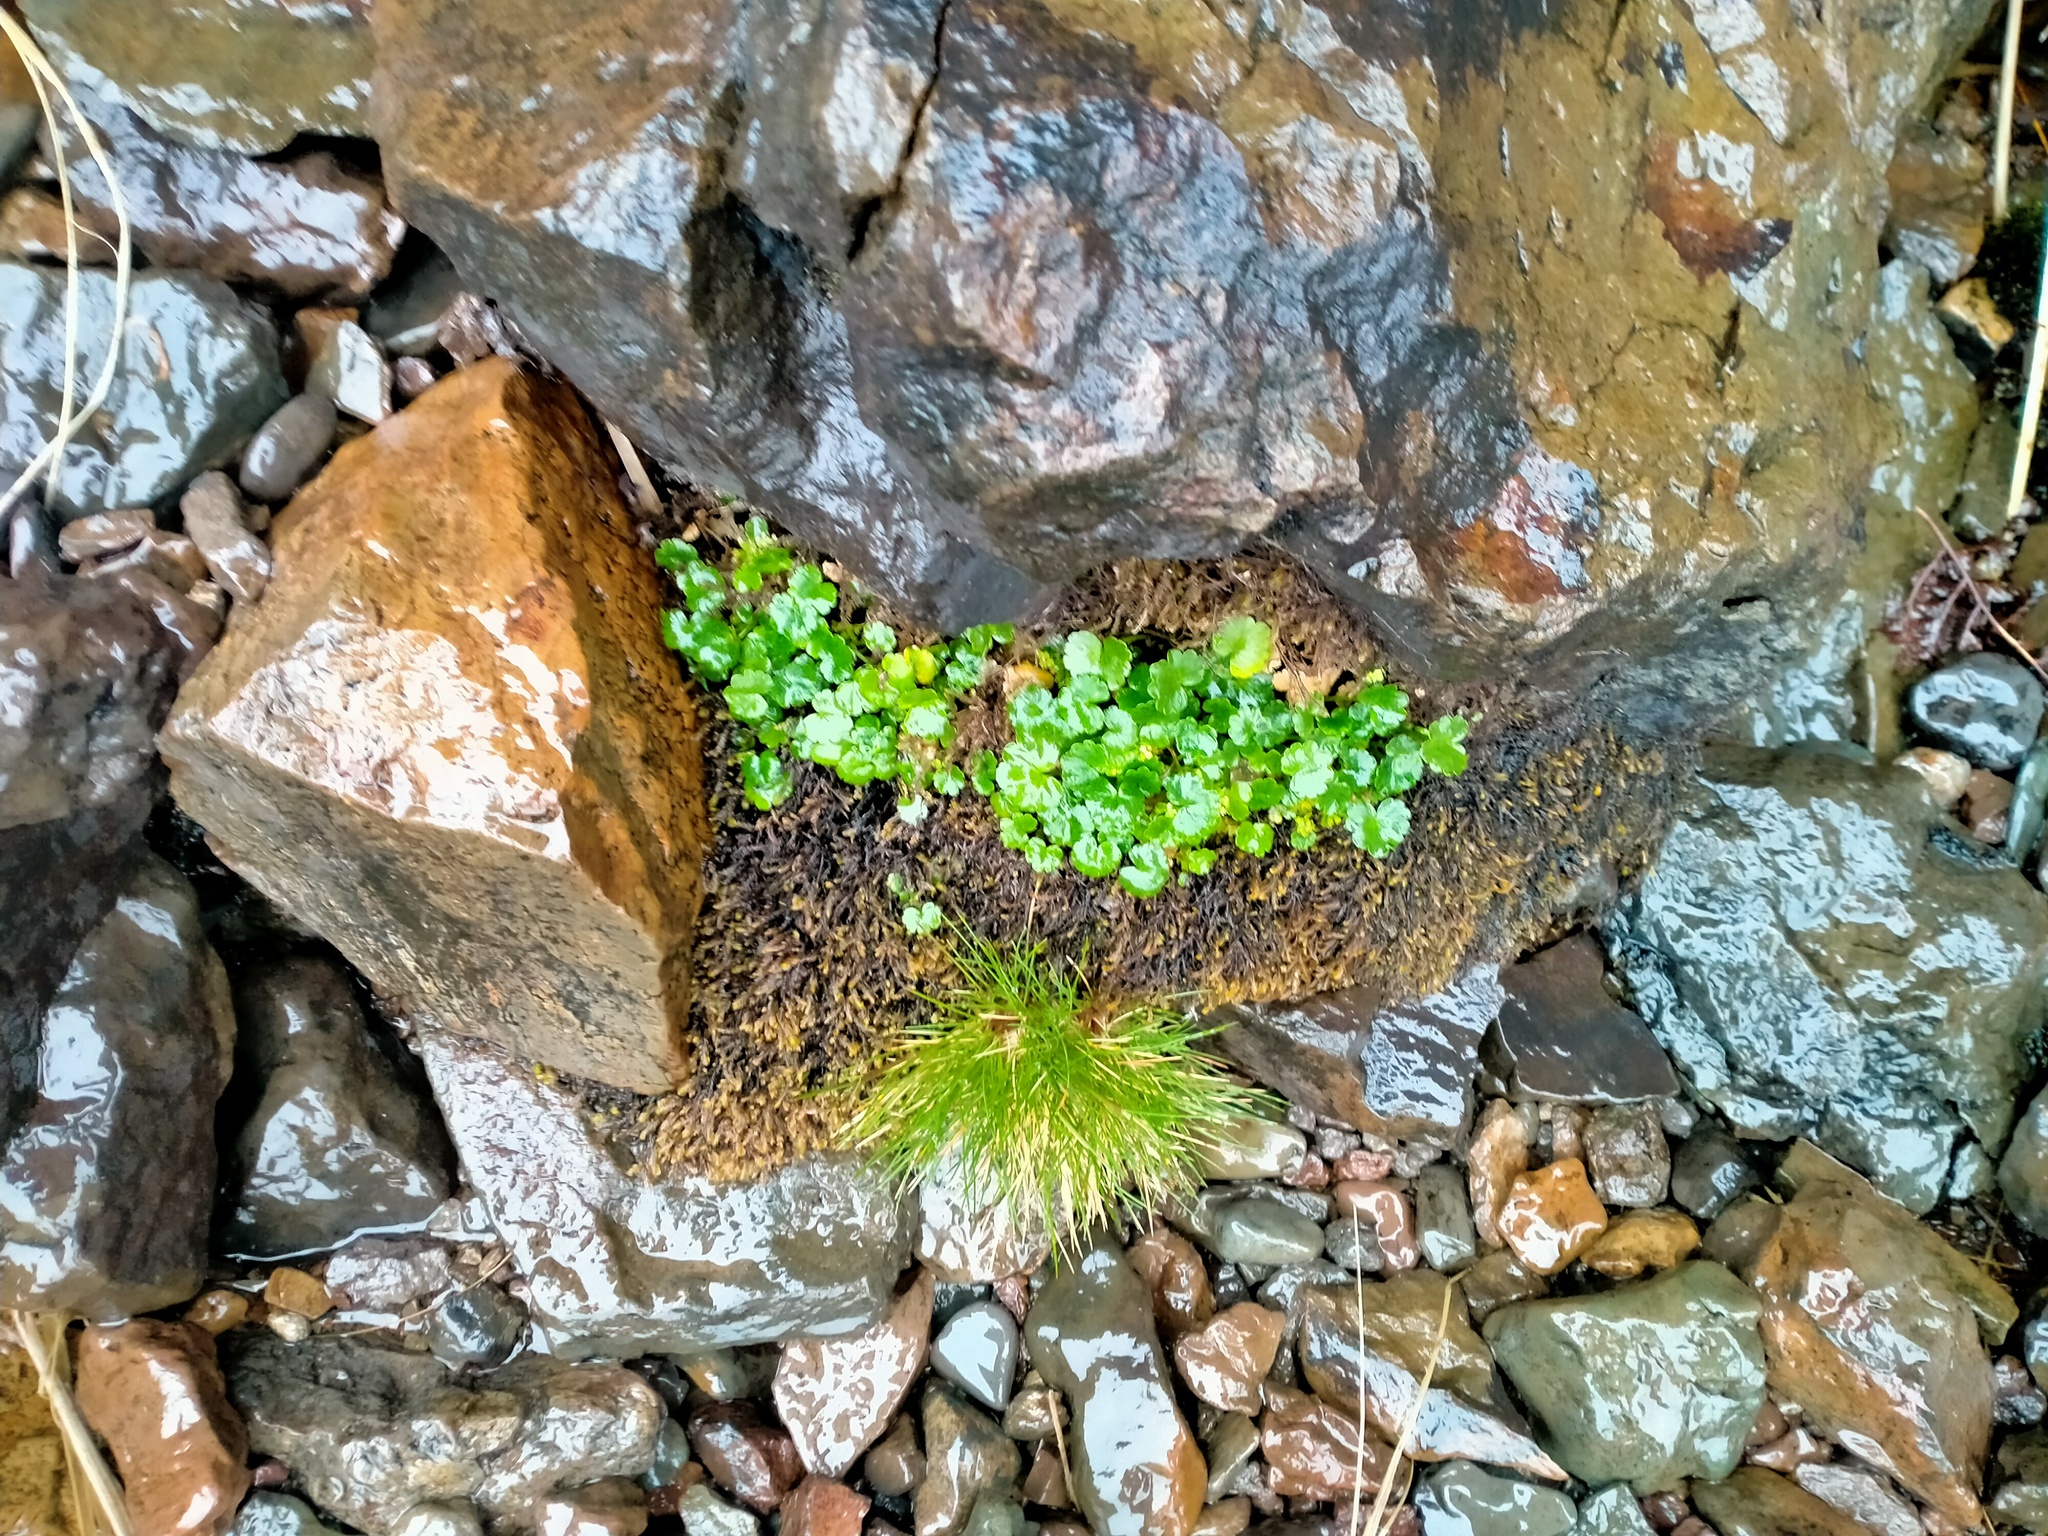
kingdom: Plantae
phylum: Tracheophyta
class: Magnoliopsida
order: Apiales
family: Apiaceae
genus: Azorella
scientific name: Azorella schizeilema
